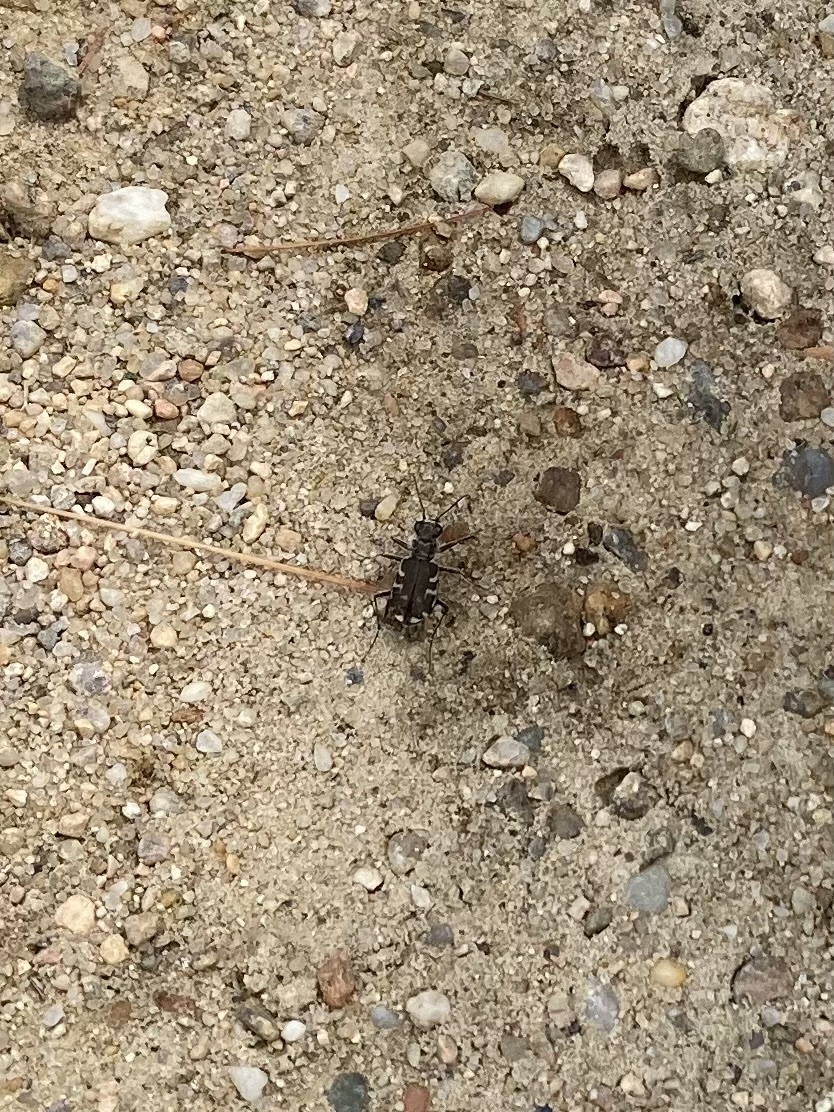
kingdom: Animalia
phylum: Arthropoda
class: Insecta
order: Coleoptera
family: Carabidae
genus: Cicindela
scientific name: Cicindela repanda
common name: Bronzed tiger beetle
